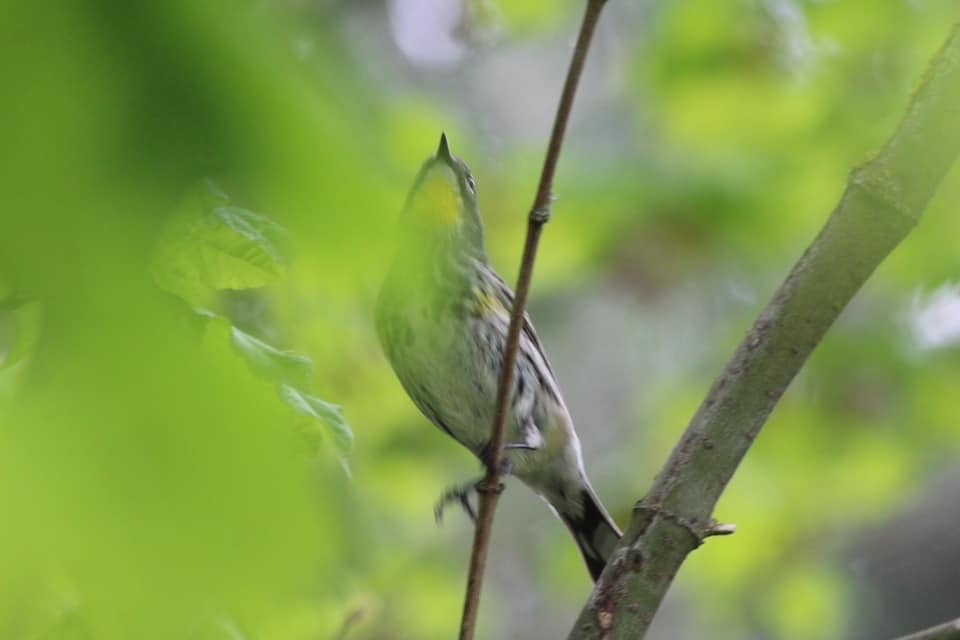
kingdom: Animalia
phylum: Chordata
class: Aves
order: Passeriformes
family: Parulidae
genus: Setophaga
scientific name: Setophaga coronata
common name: Myrtle warbler
